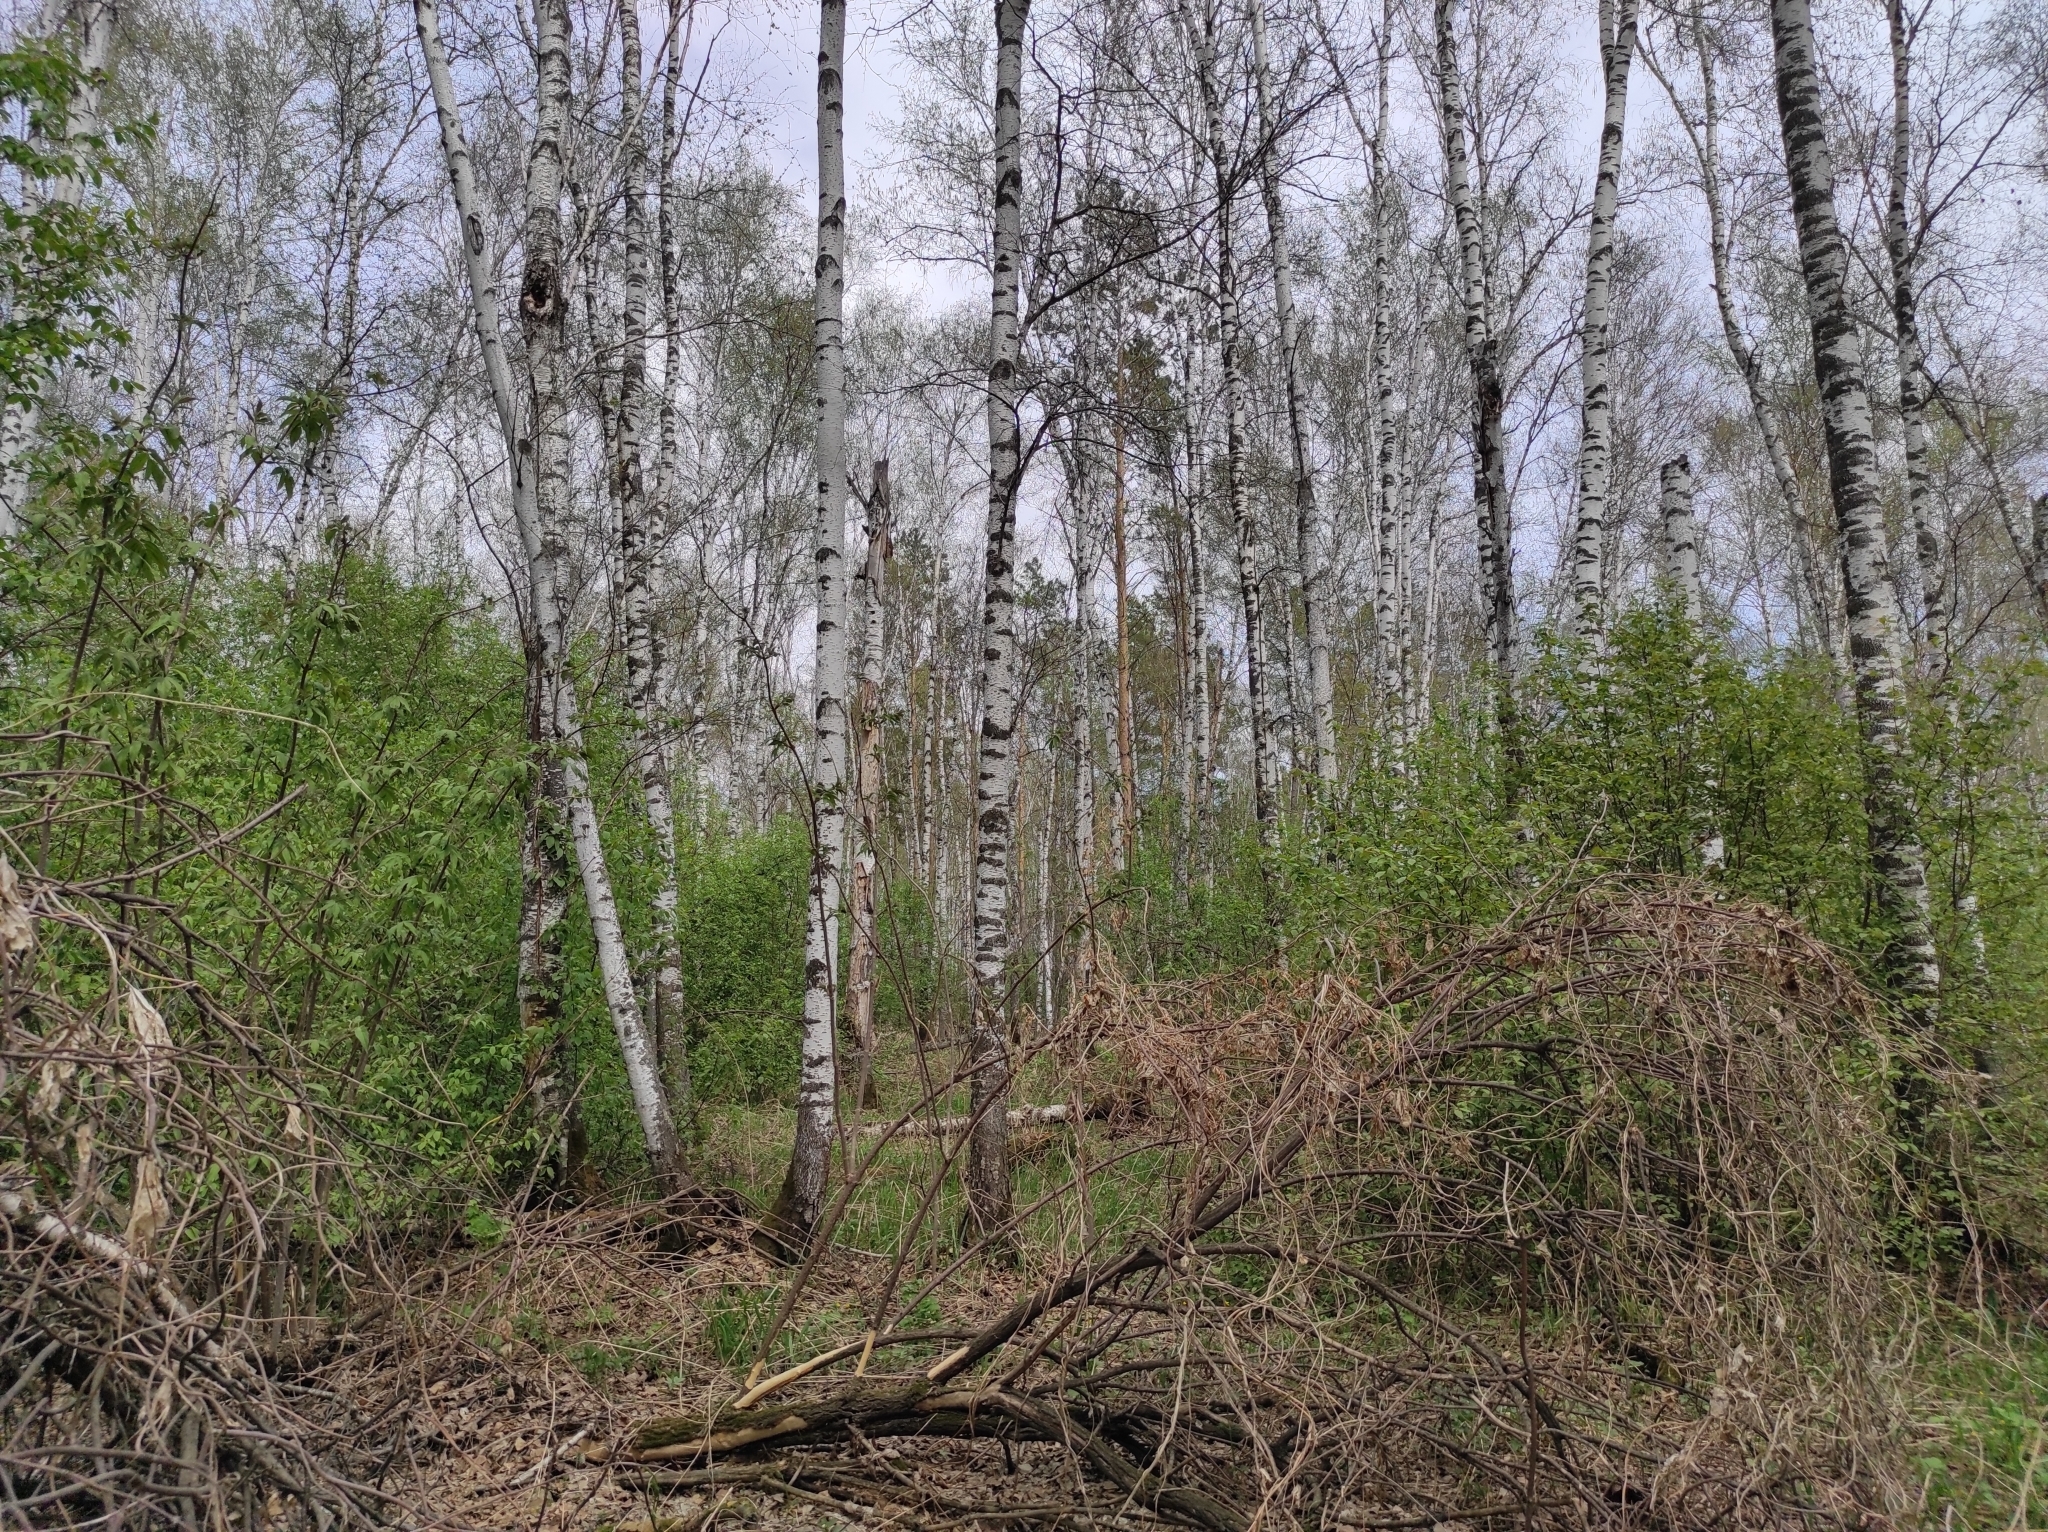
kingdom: Fungi
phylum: Ascomycota
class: Pezizomycetes
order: Pezizales
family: Morchellaceae
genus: Verpa
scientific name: Verpa bohemica
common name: Wrinkled thimble morel
